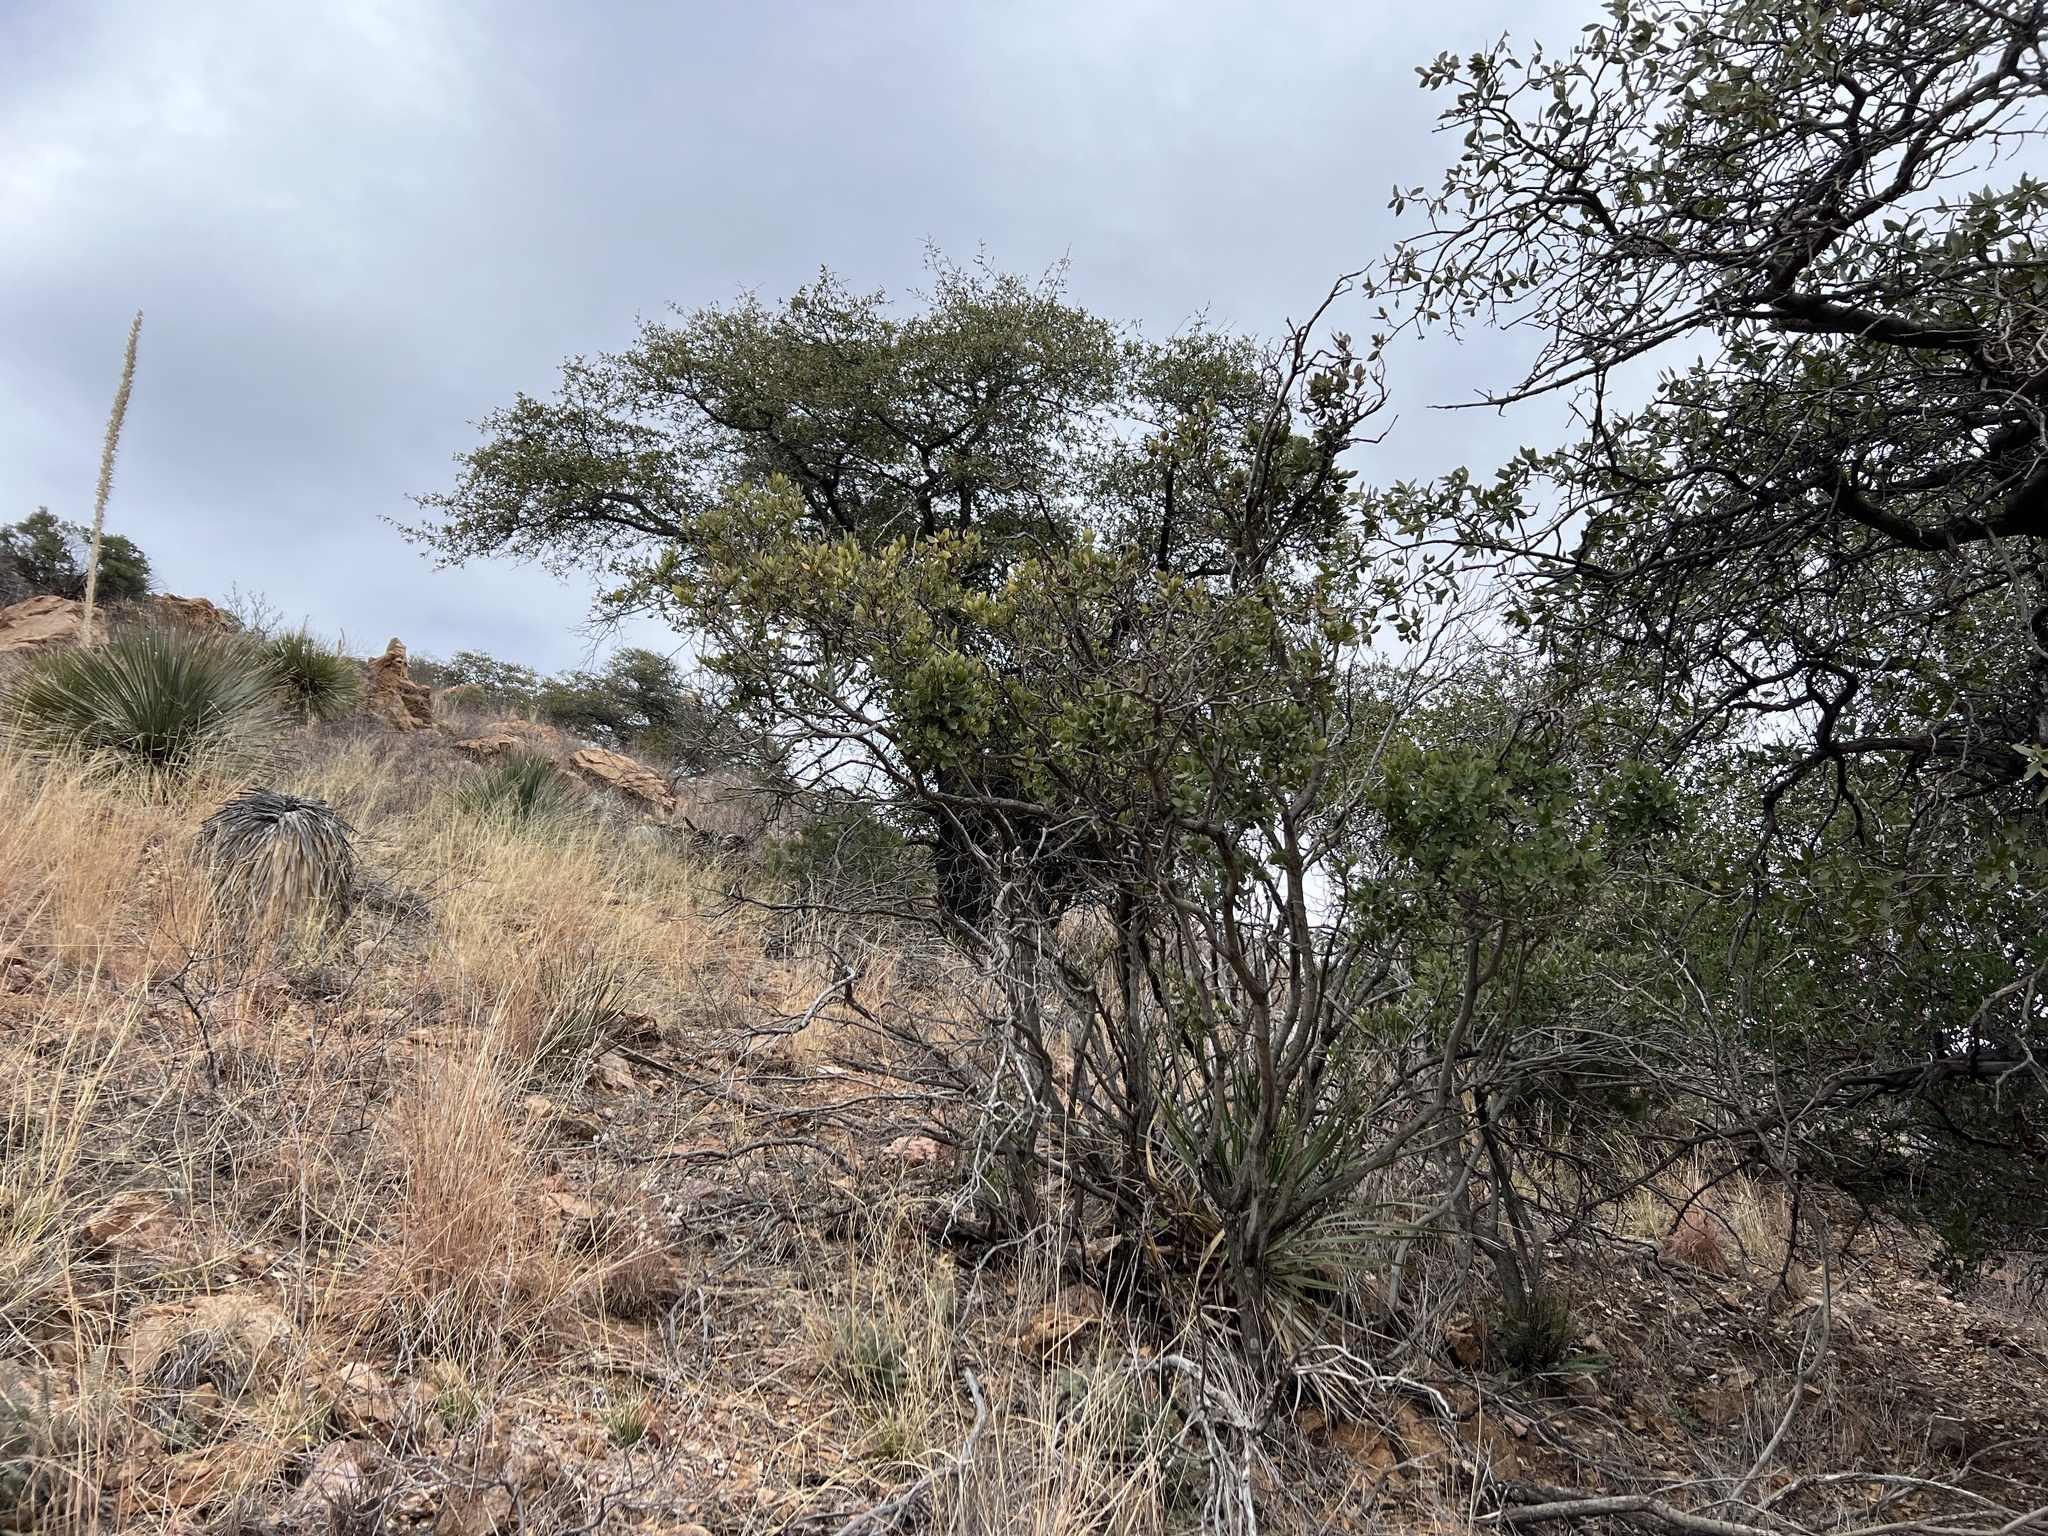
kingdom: Plantae
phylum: Tracheophyta
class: Magnoliopsida
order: Garryales
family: Garryaceae
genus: Garrya
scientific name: Garrya wrightii
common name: Wright's silktassel
